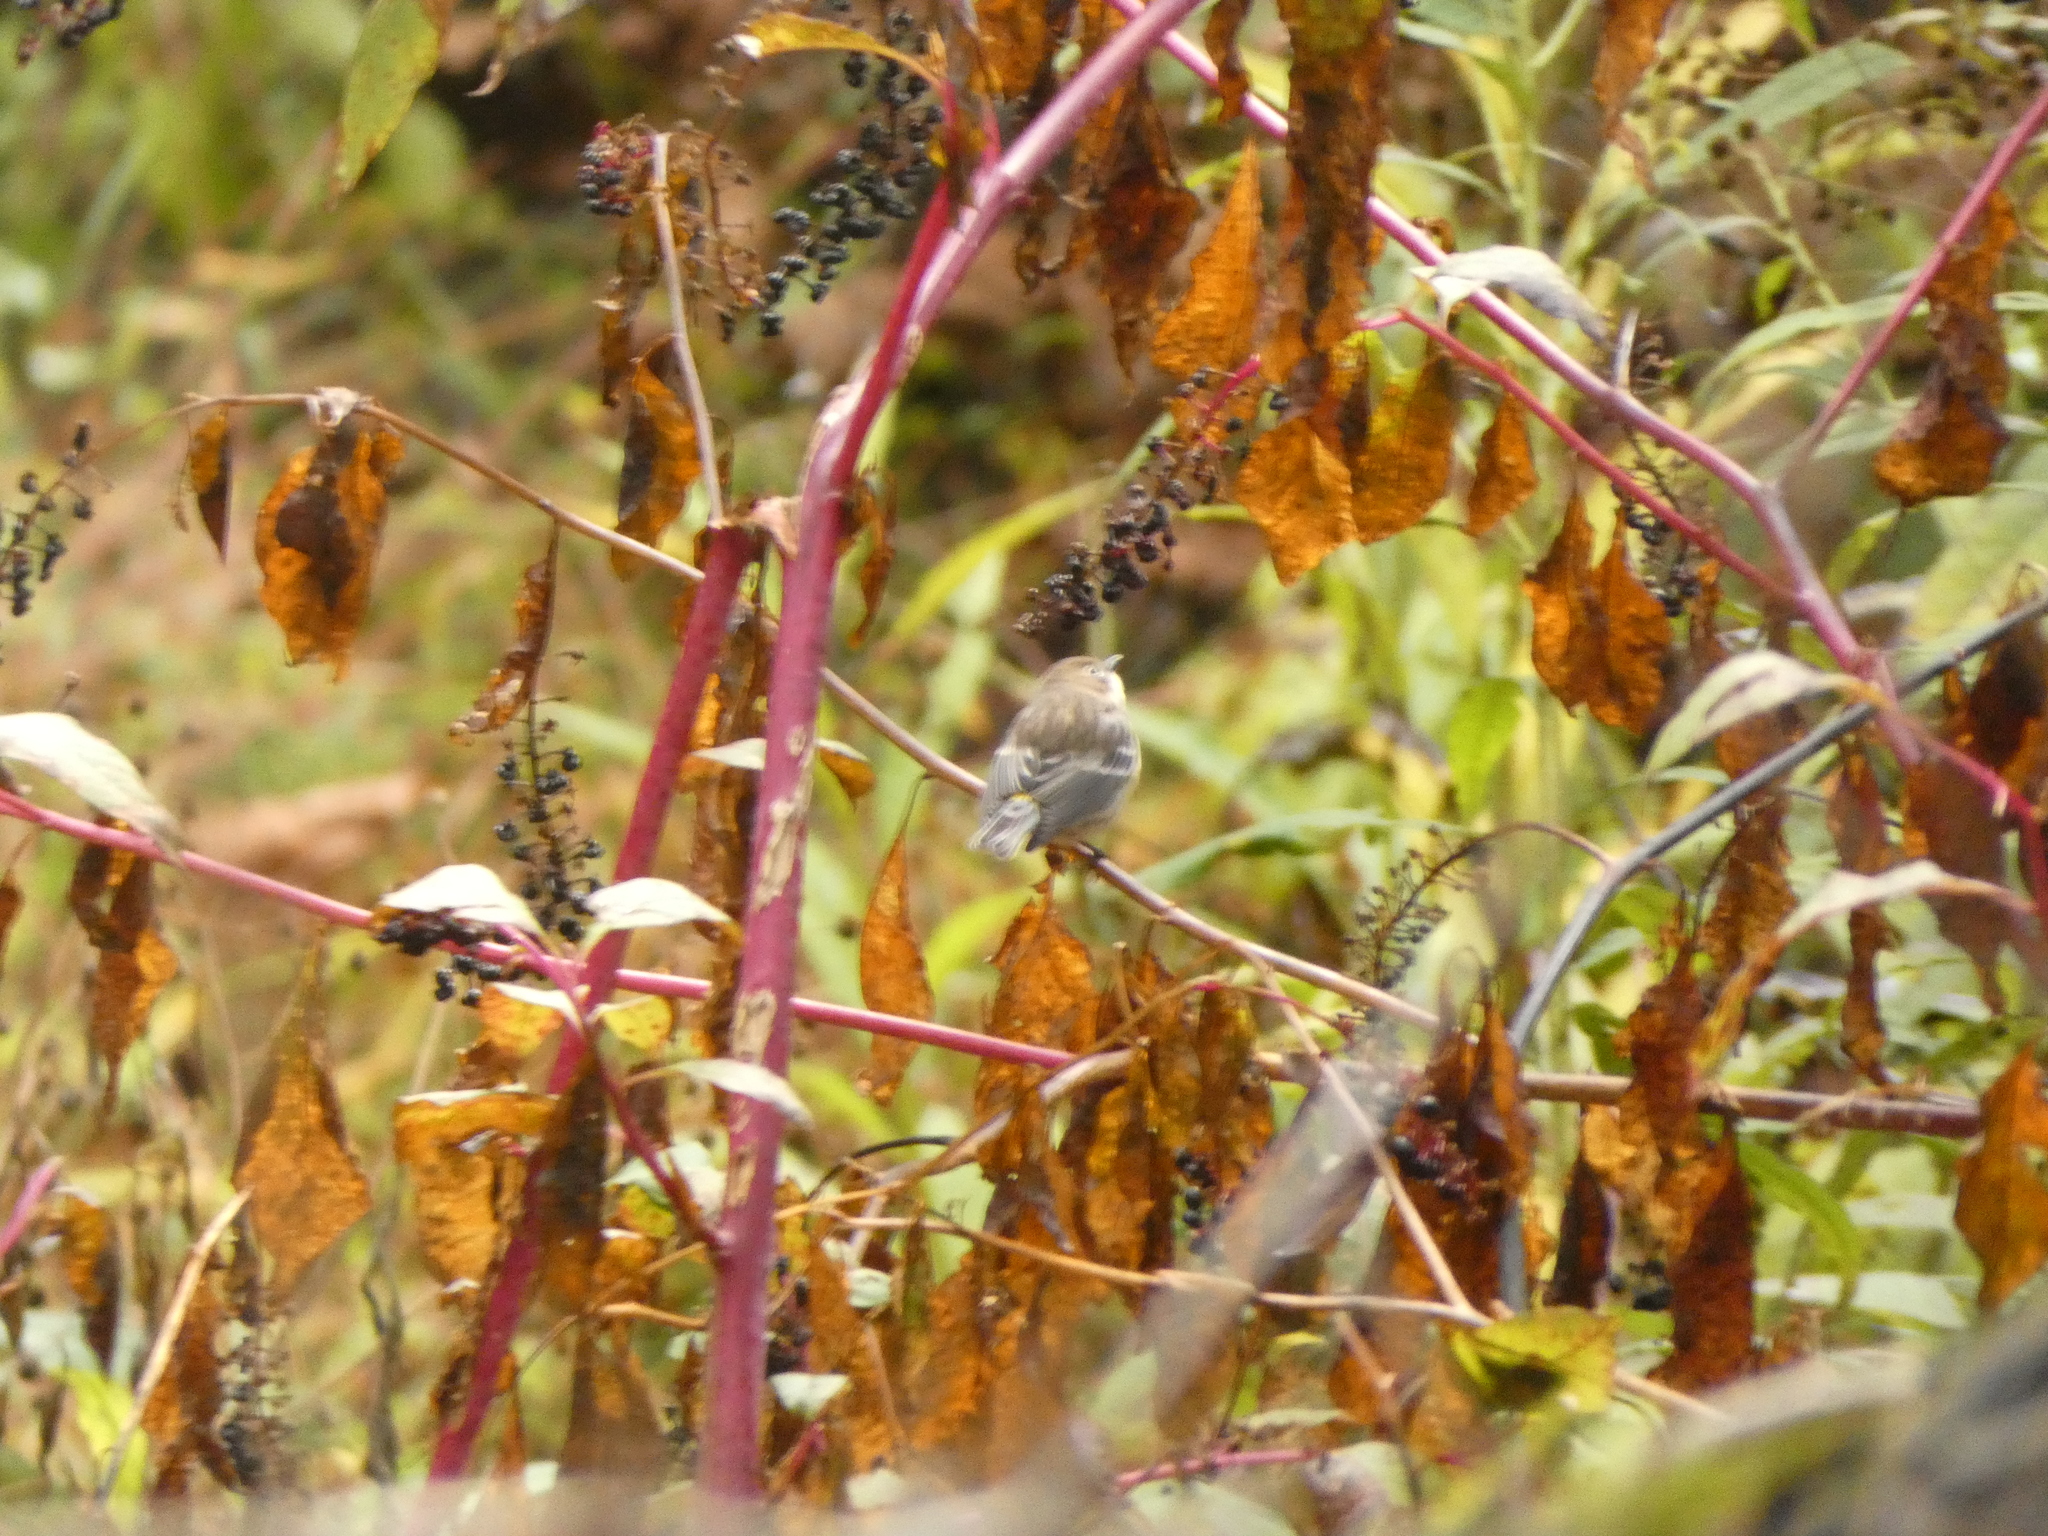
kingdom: Animalia
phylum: Chordata
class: Aves
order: Passeriformes
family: Parulidae
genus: Setophaga
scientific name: Setophaga coronata
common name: Myrtle warbler
